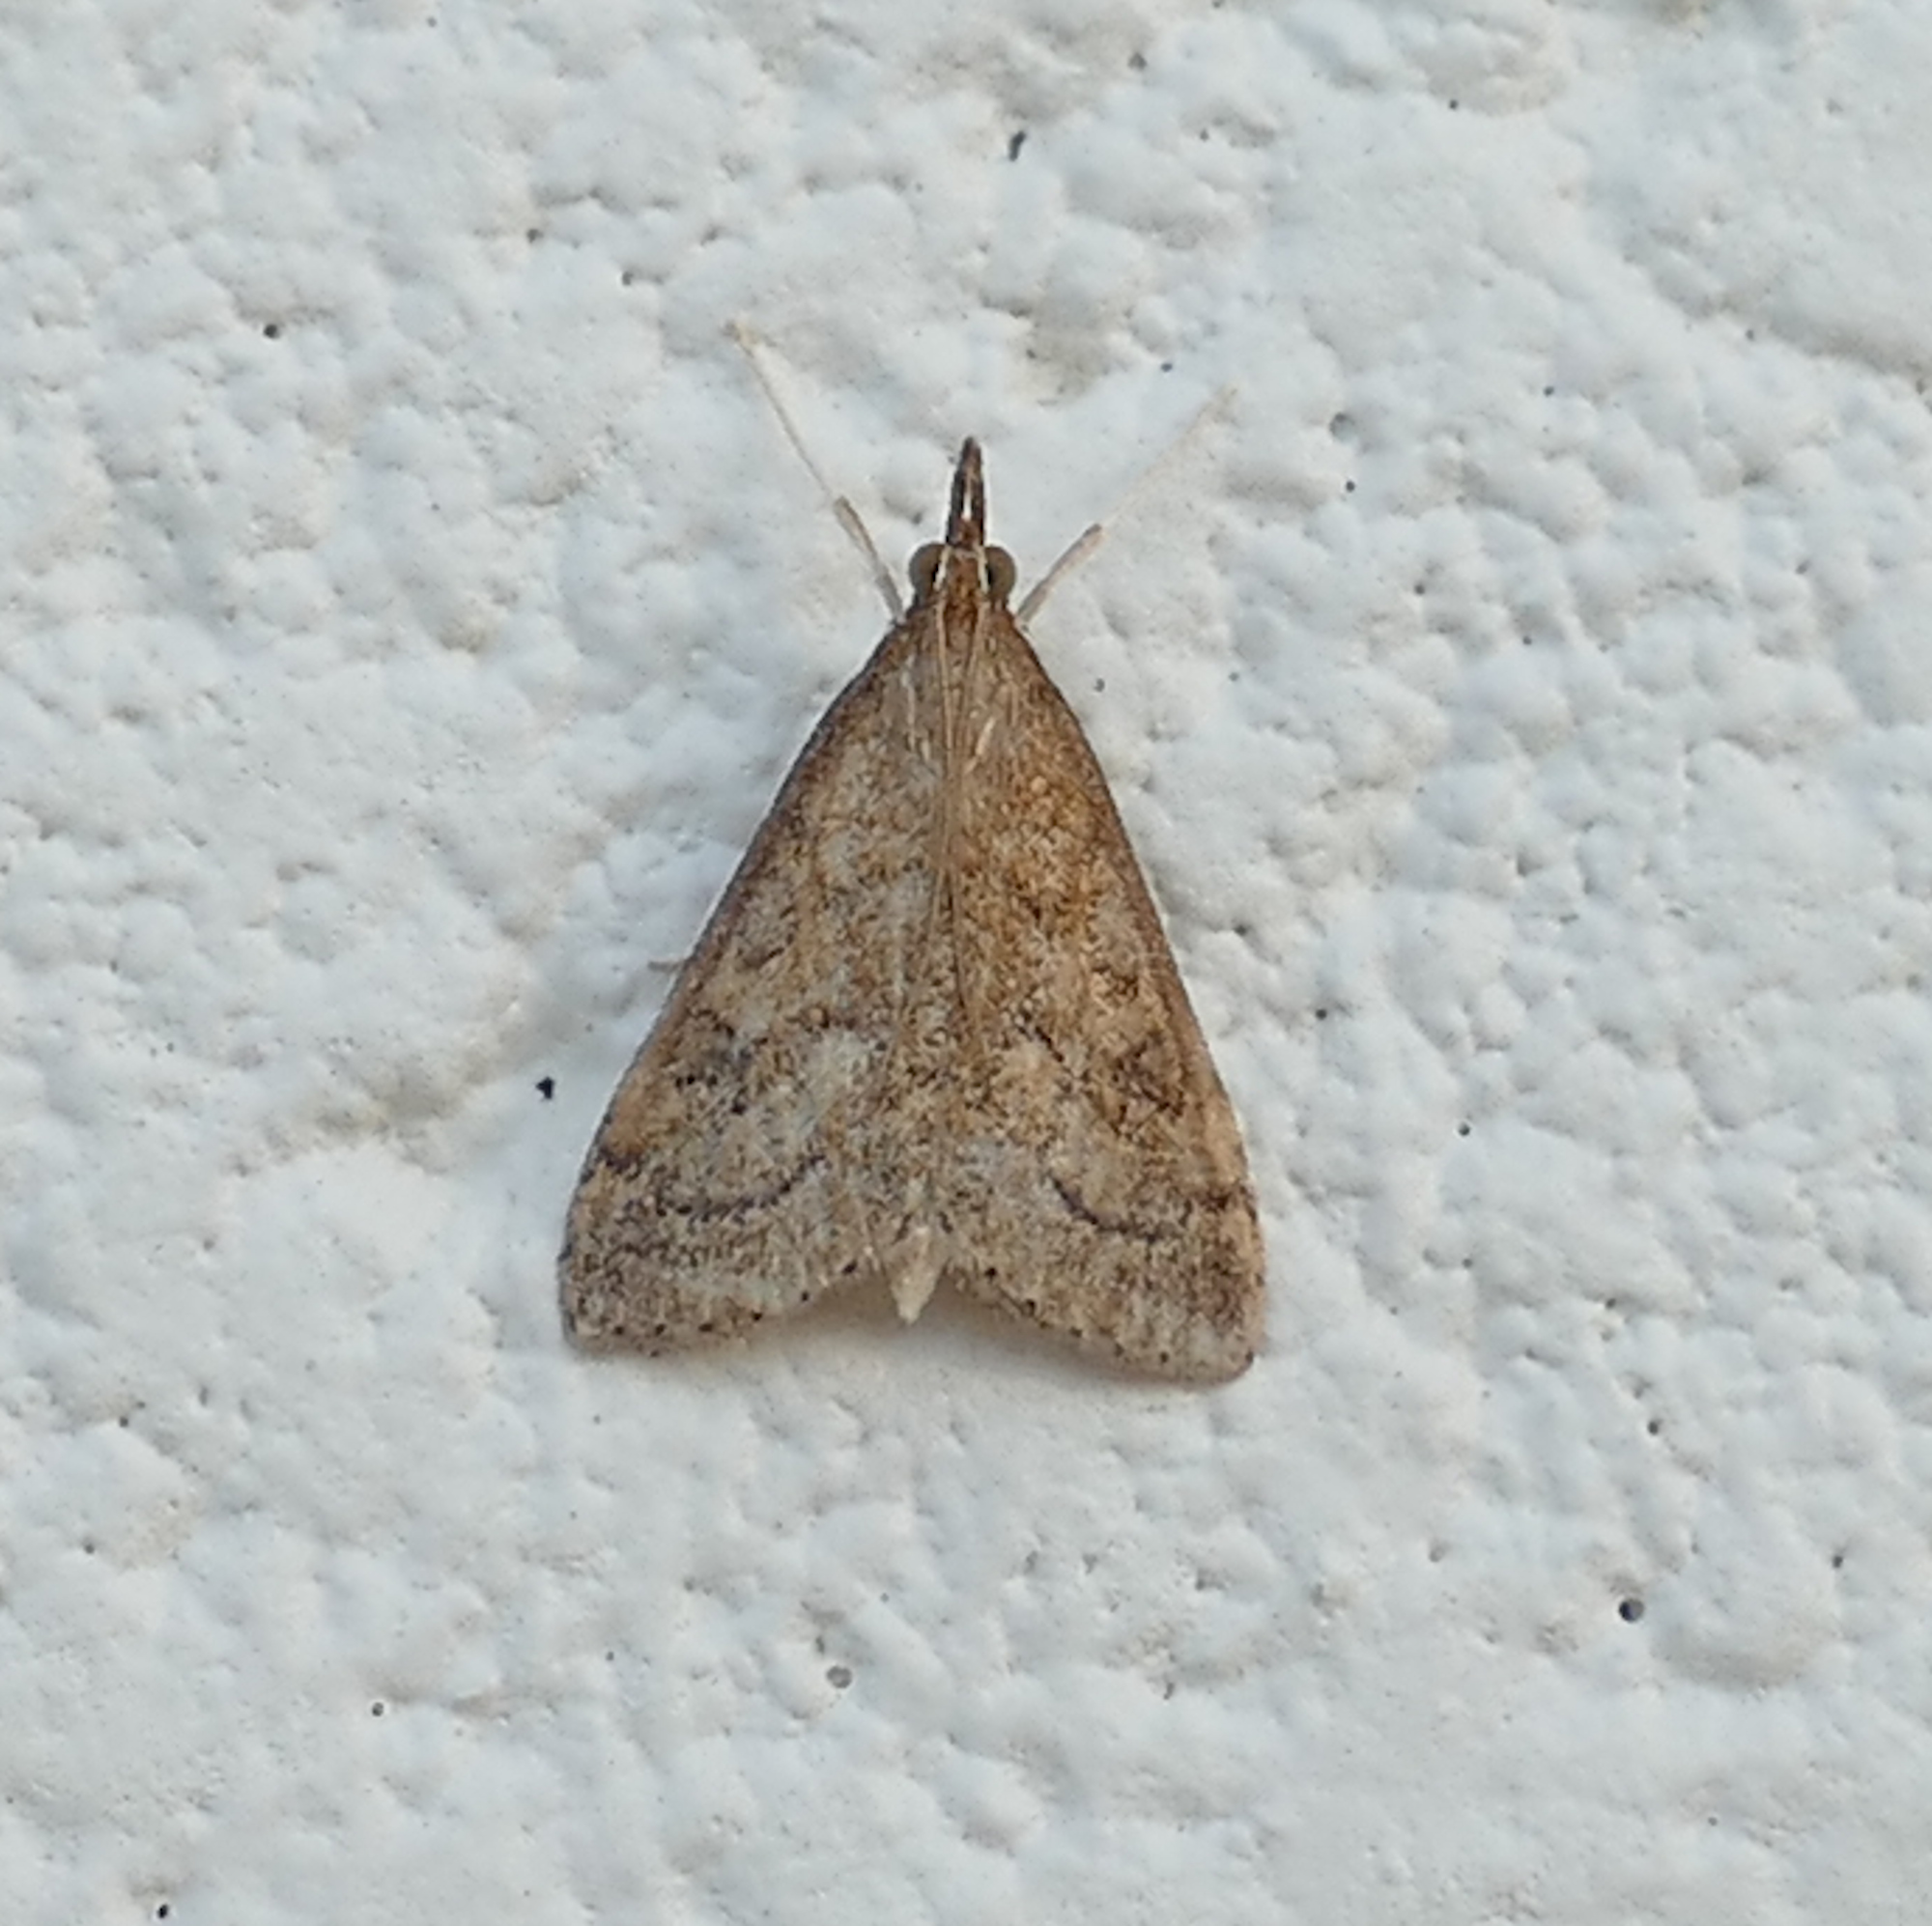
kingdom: Animalia
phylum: Arthropoda
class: Insecta
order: Lepidoptera
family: Crambidae
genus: Udea
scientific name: Udea rubigalis
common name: Celery leaftier moth
